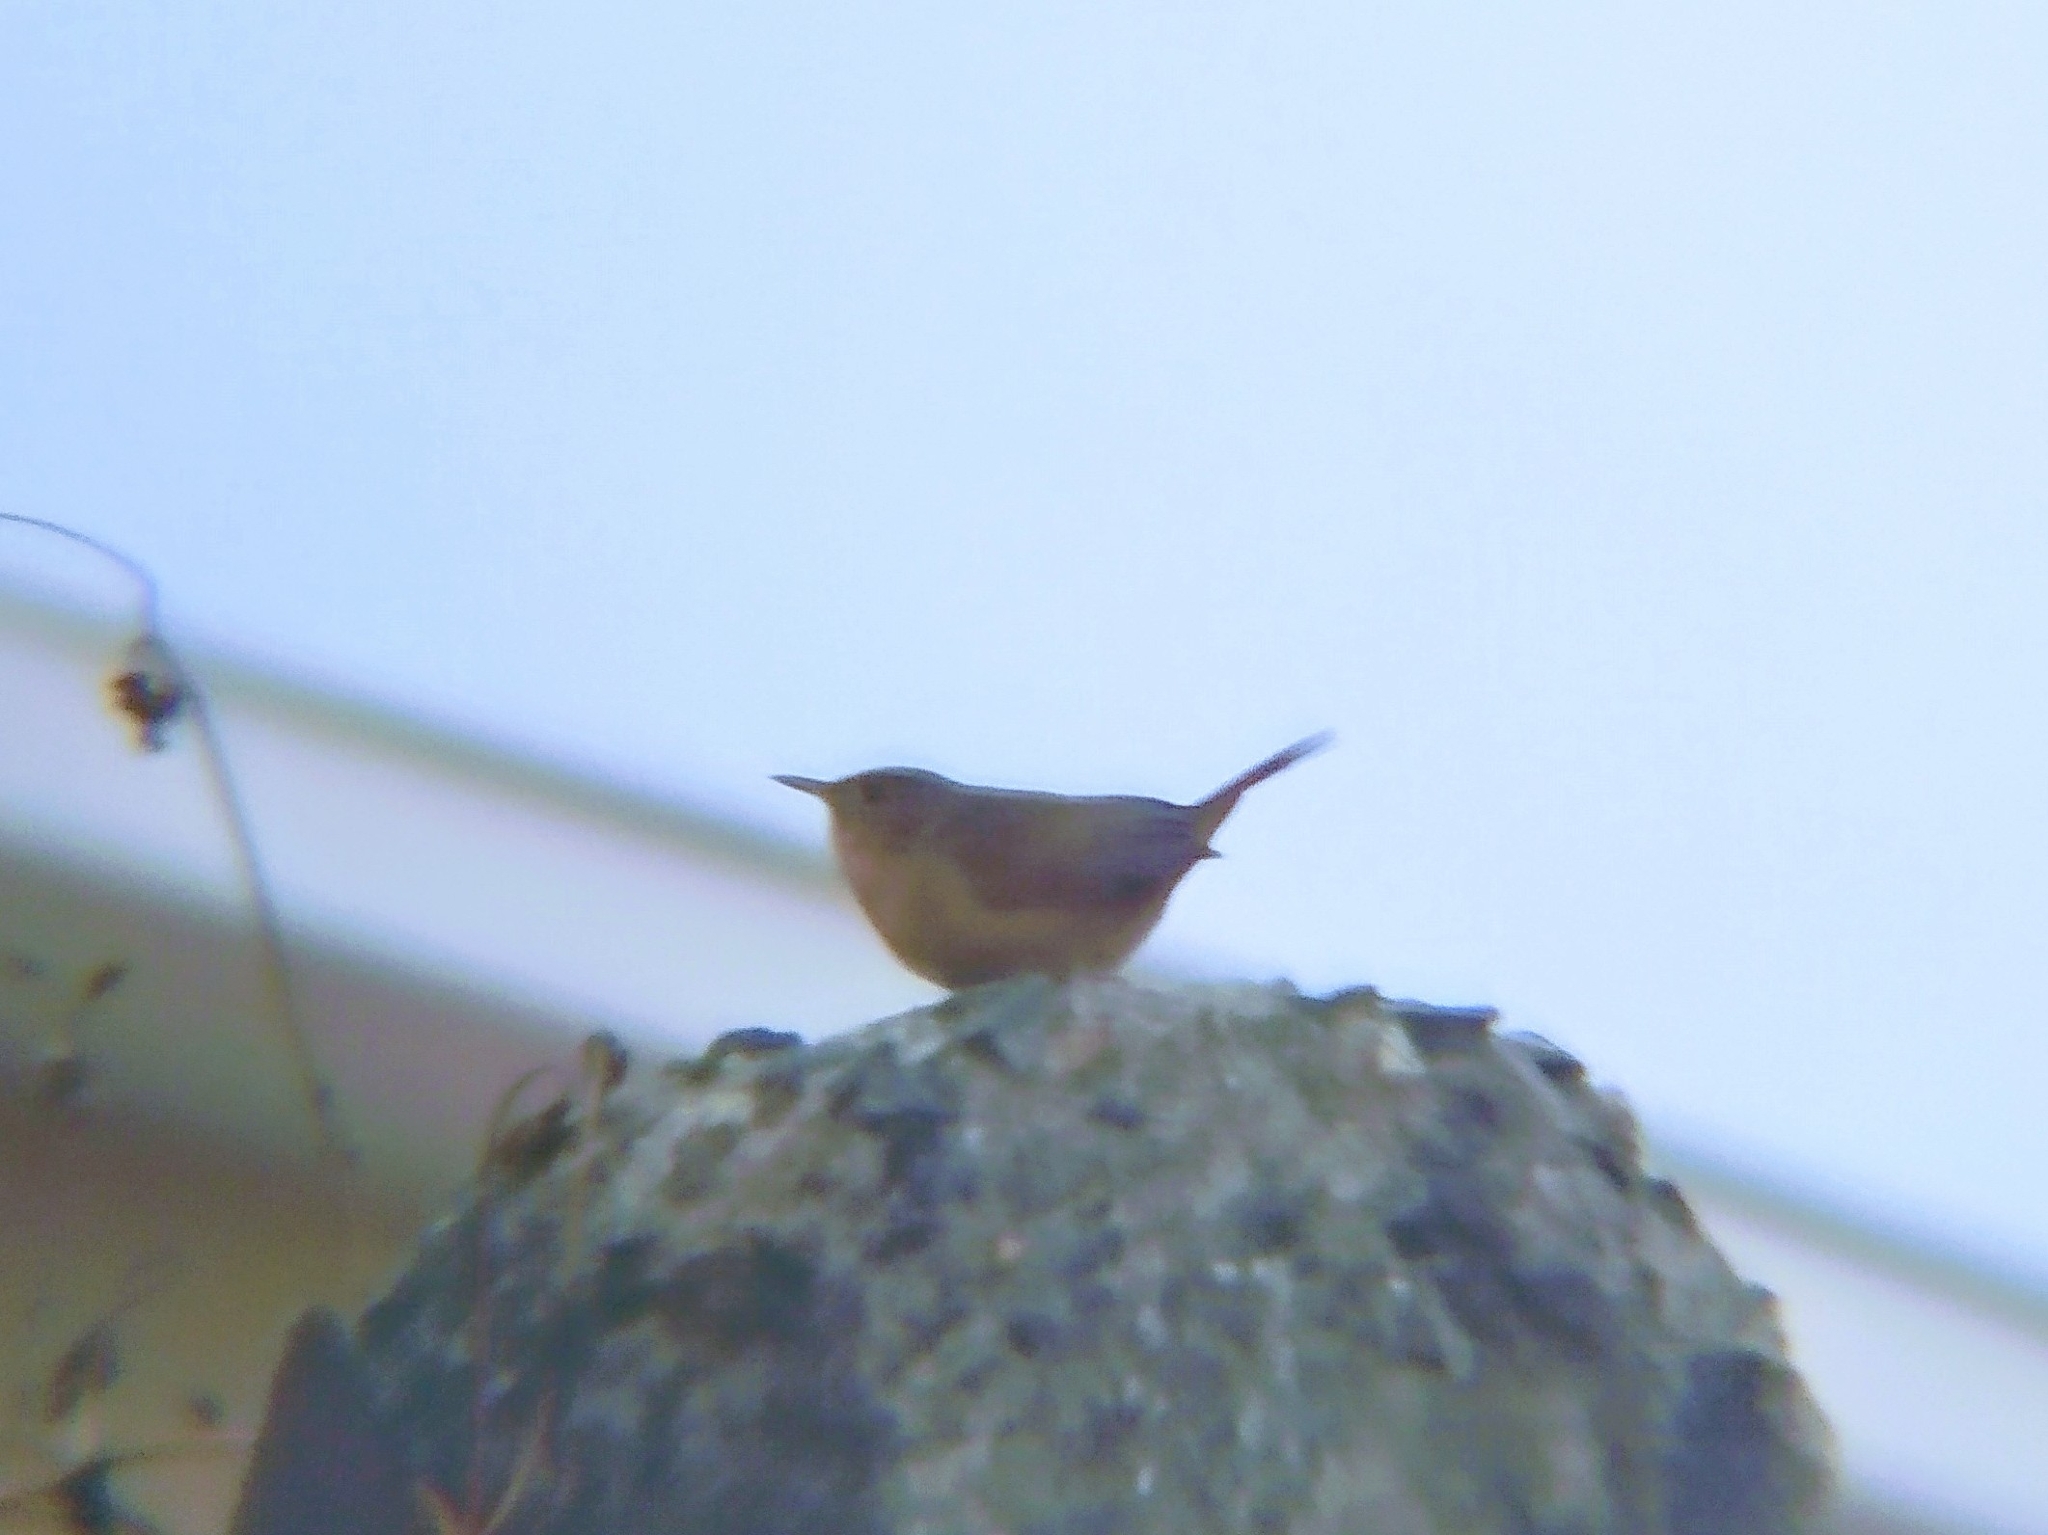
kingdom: Animalia
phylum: Chordata
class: Aves
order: Passeriformes
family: Troglodytidae
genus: Troglodytes
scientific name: Troglodytes aedon
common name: House wren
